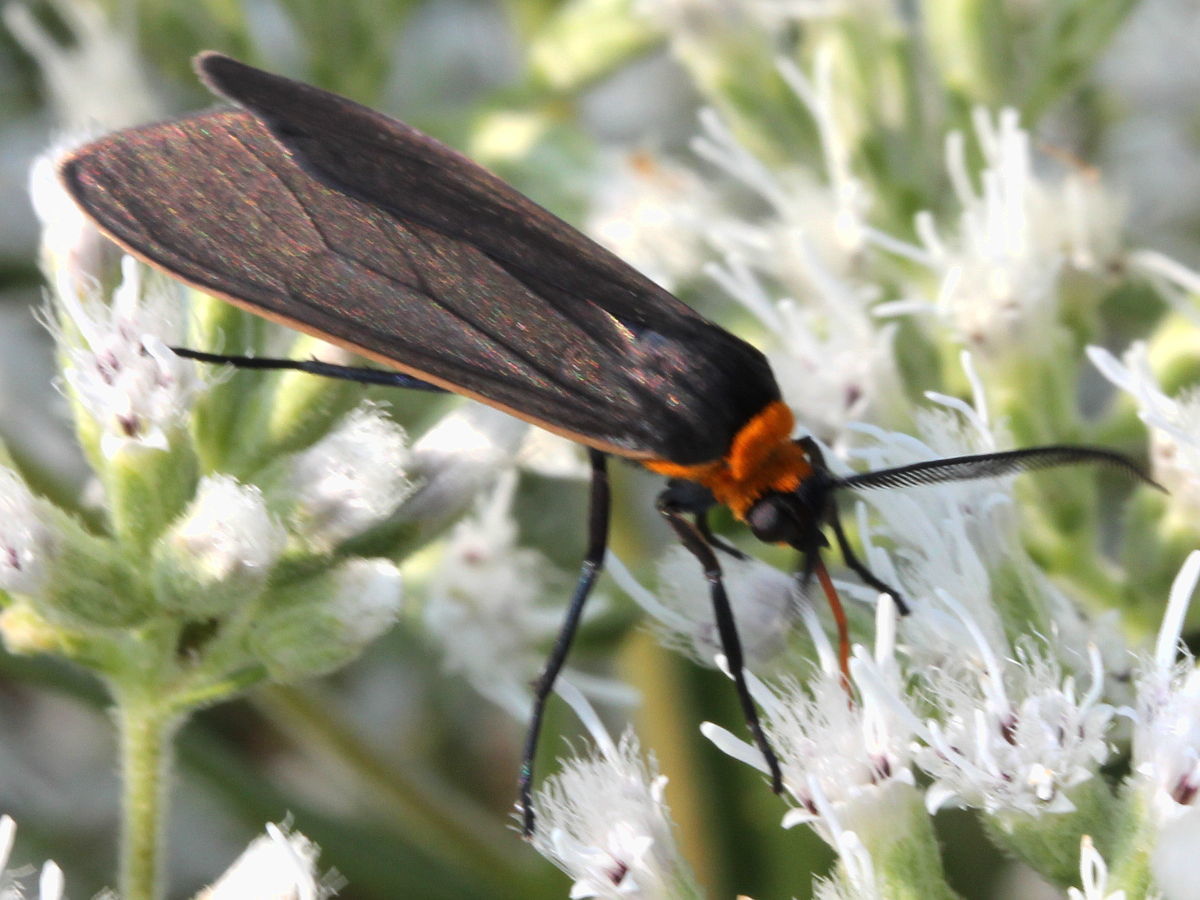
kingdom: Animalia
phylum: Arthropoda
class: Insecta
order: Lepidoptera
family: Erebidae
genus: Cisseps
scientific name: Cisseps fulvicollis
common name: Yellow-collared scape moth
